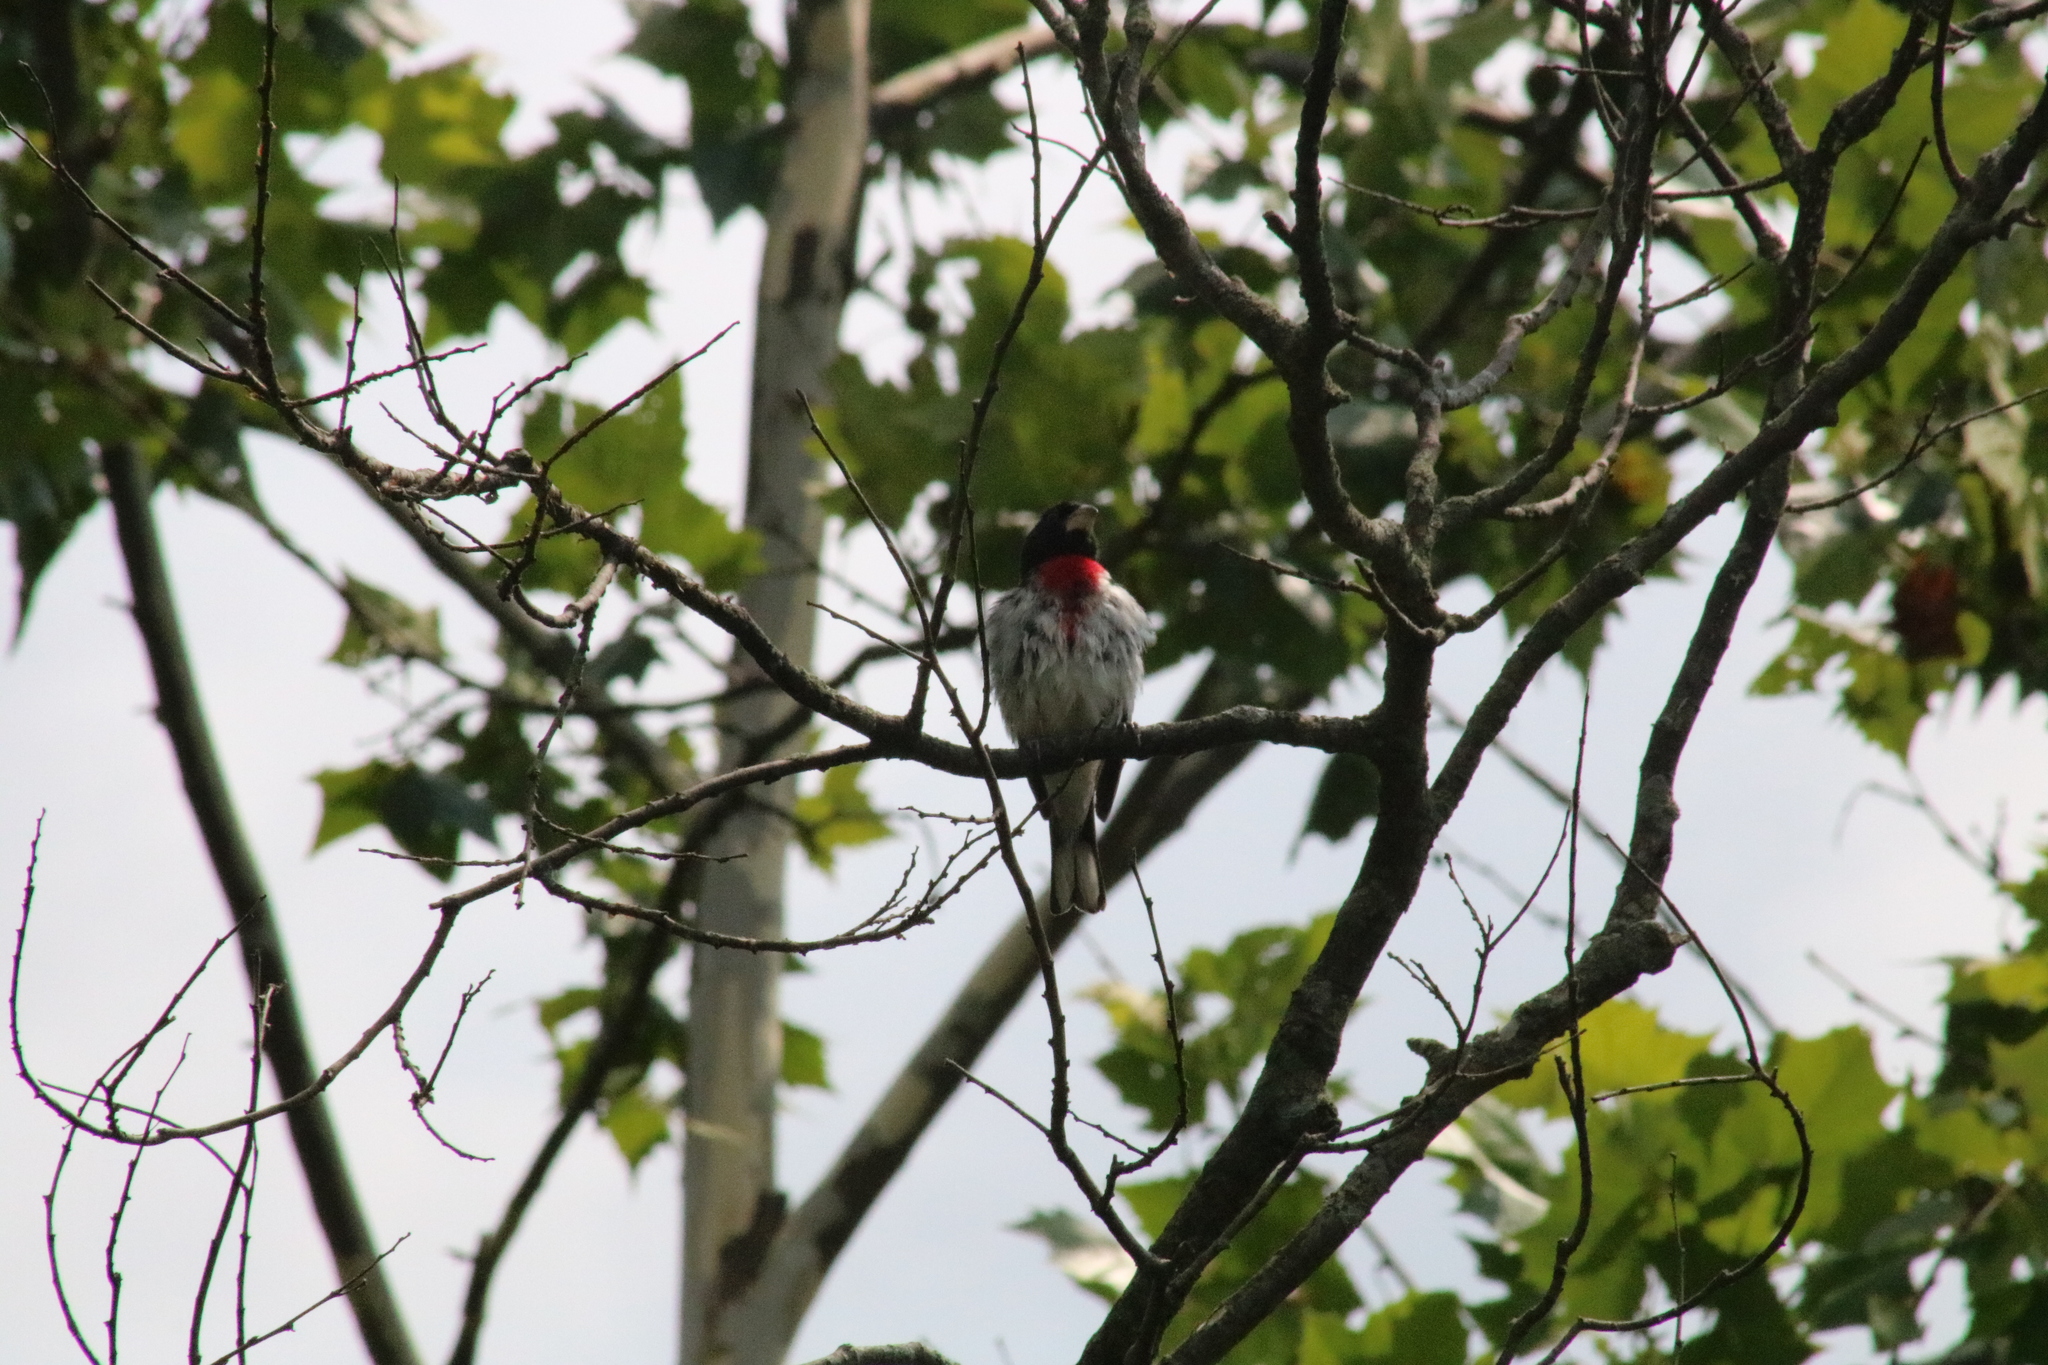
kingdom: Animalia
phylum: Chordata
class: Aves
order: Passeriformes
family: Cardinalidae
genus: Pheucticus
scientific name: Pheucticus ludovicianus
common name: Rose-breasted grosbeak
